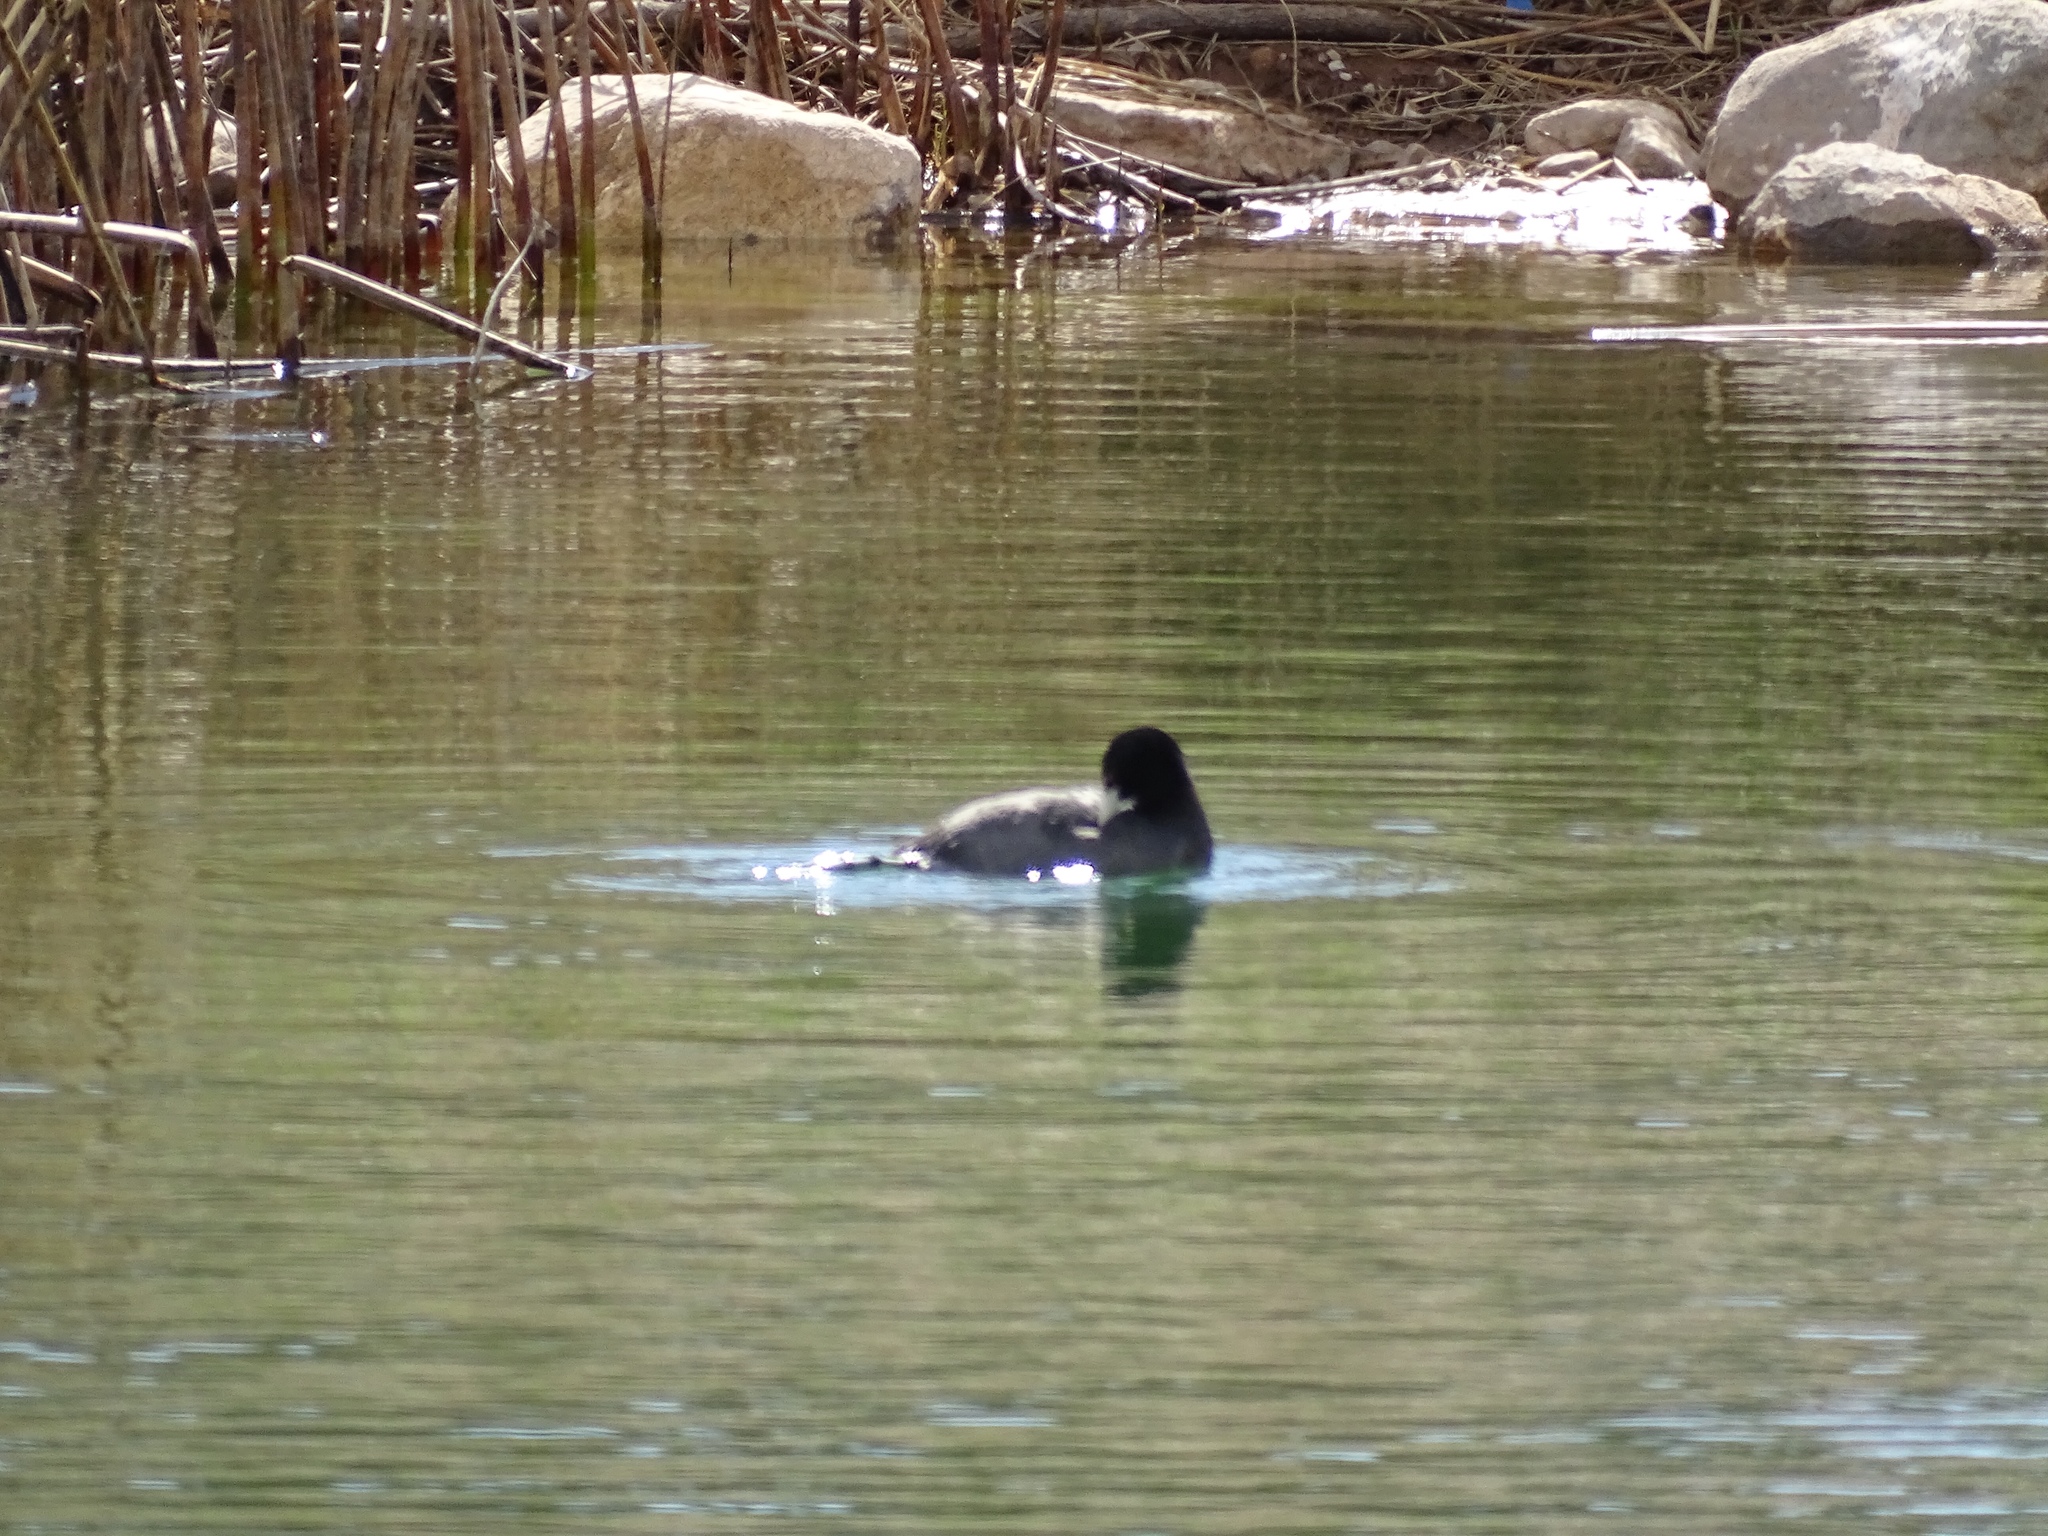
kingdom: Animalia
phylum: Chordata
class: Aves
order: Gruiformes
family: Rallidae
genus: Fulica
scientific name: Fulica americana
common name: American coot
